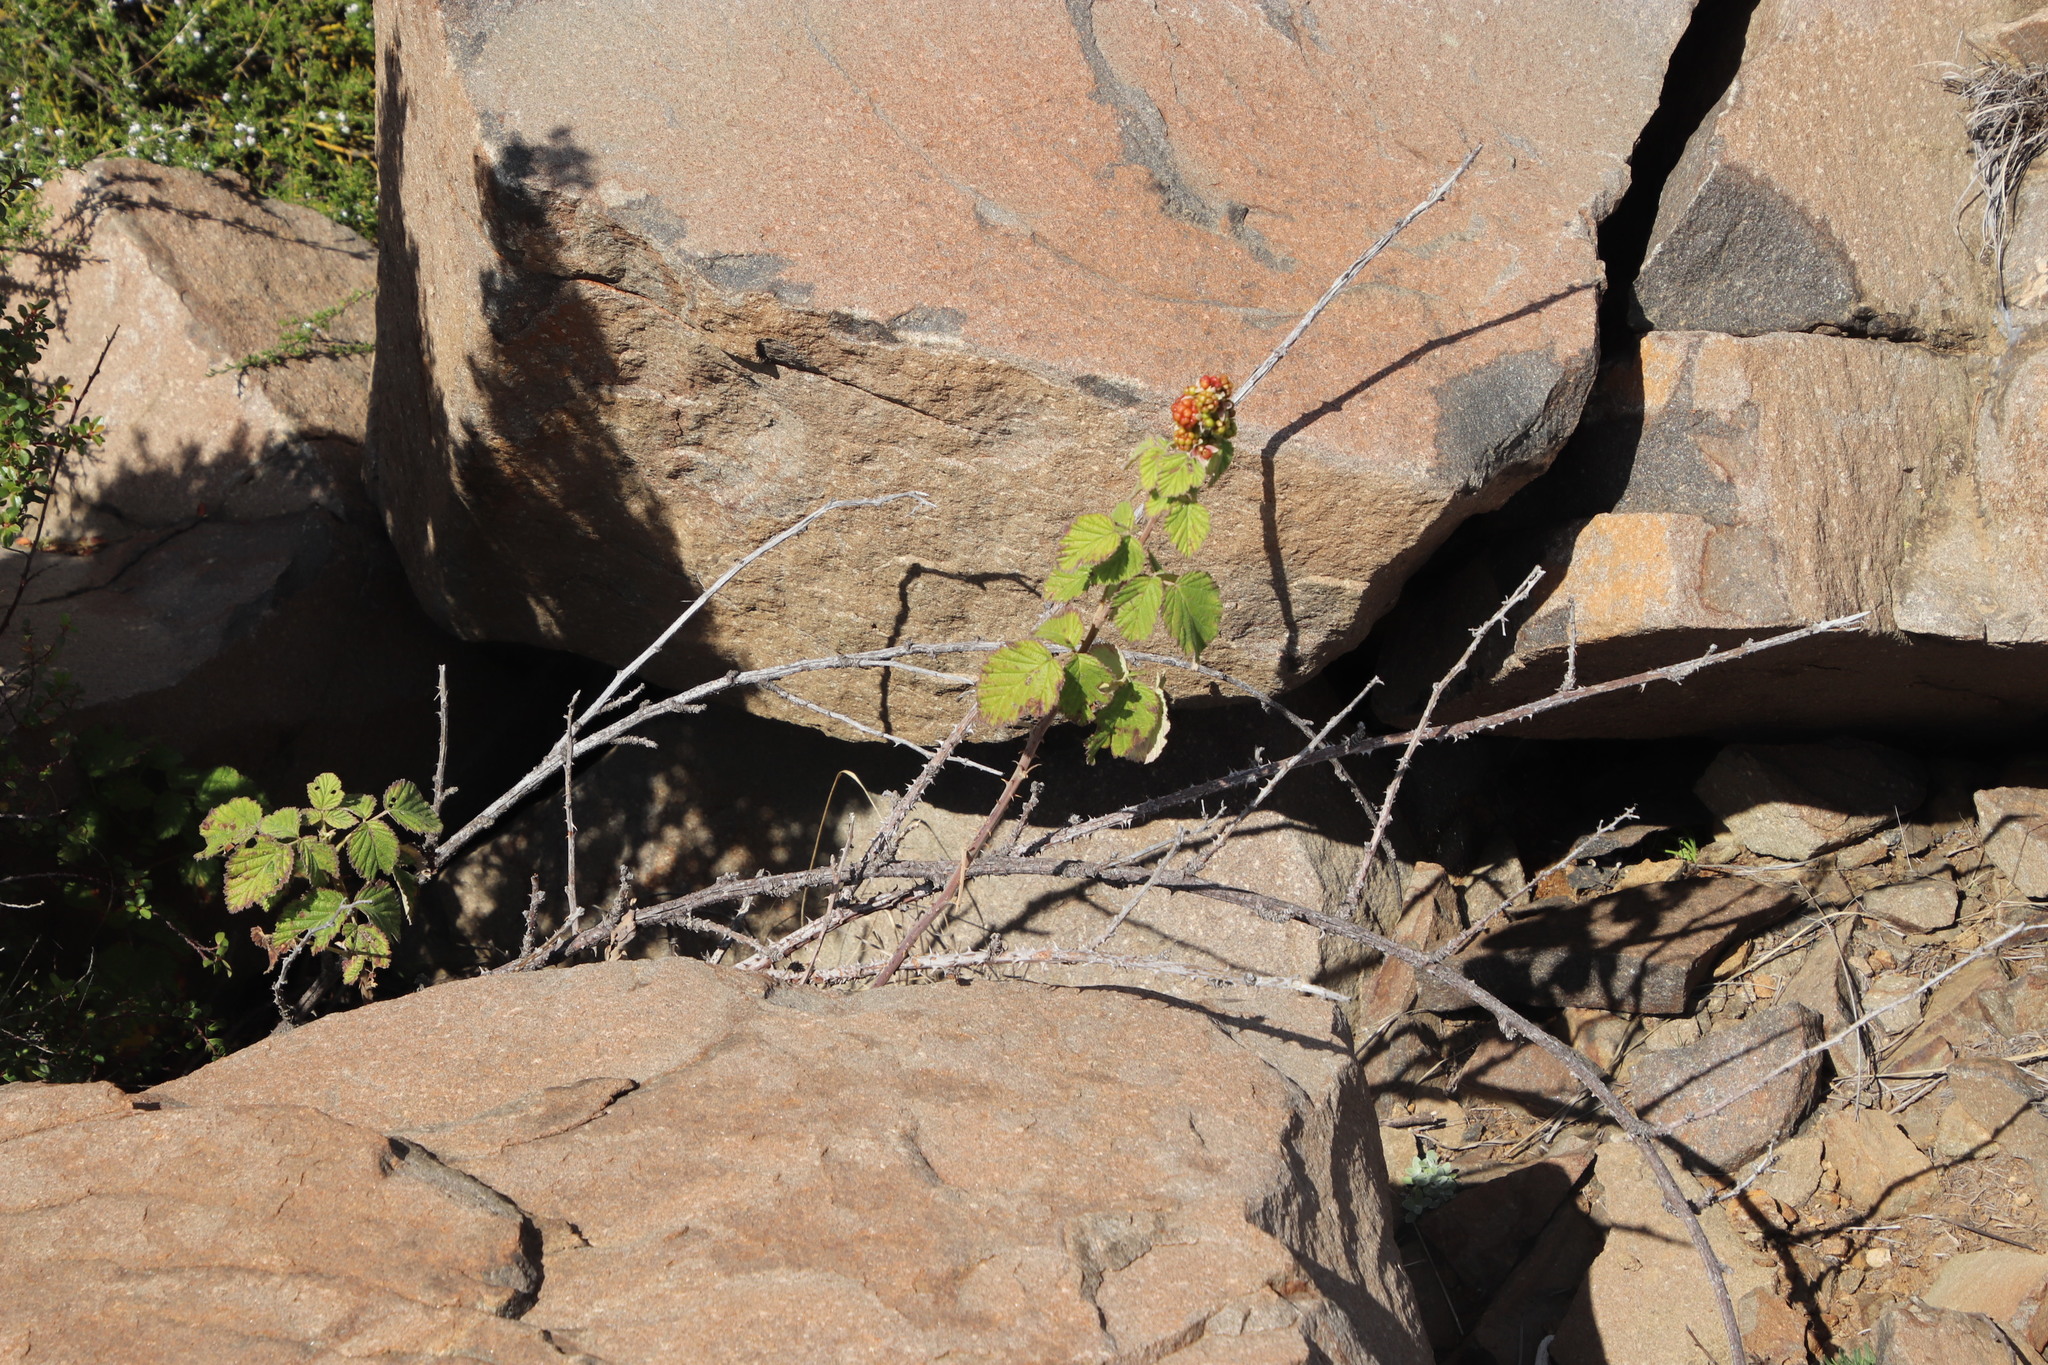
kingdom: Plantae
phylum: Tracheophyta
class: Magnoliopsida
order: Rosales
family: Rosaceae
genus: Rubus
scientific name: Rubus rigidus
